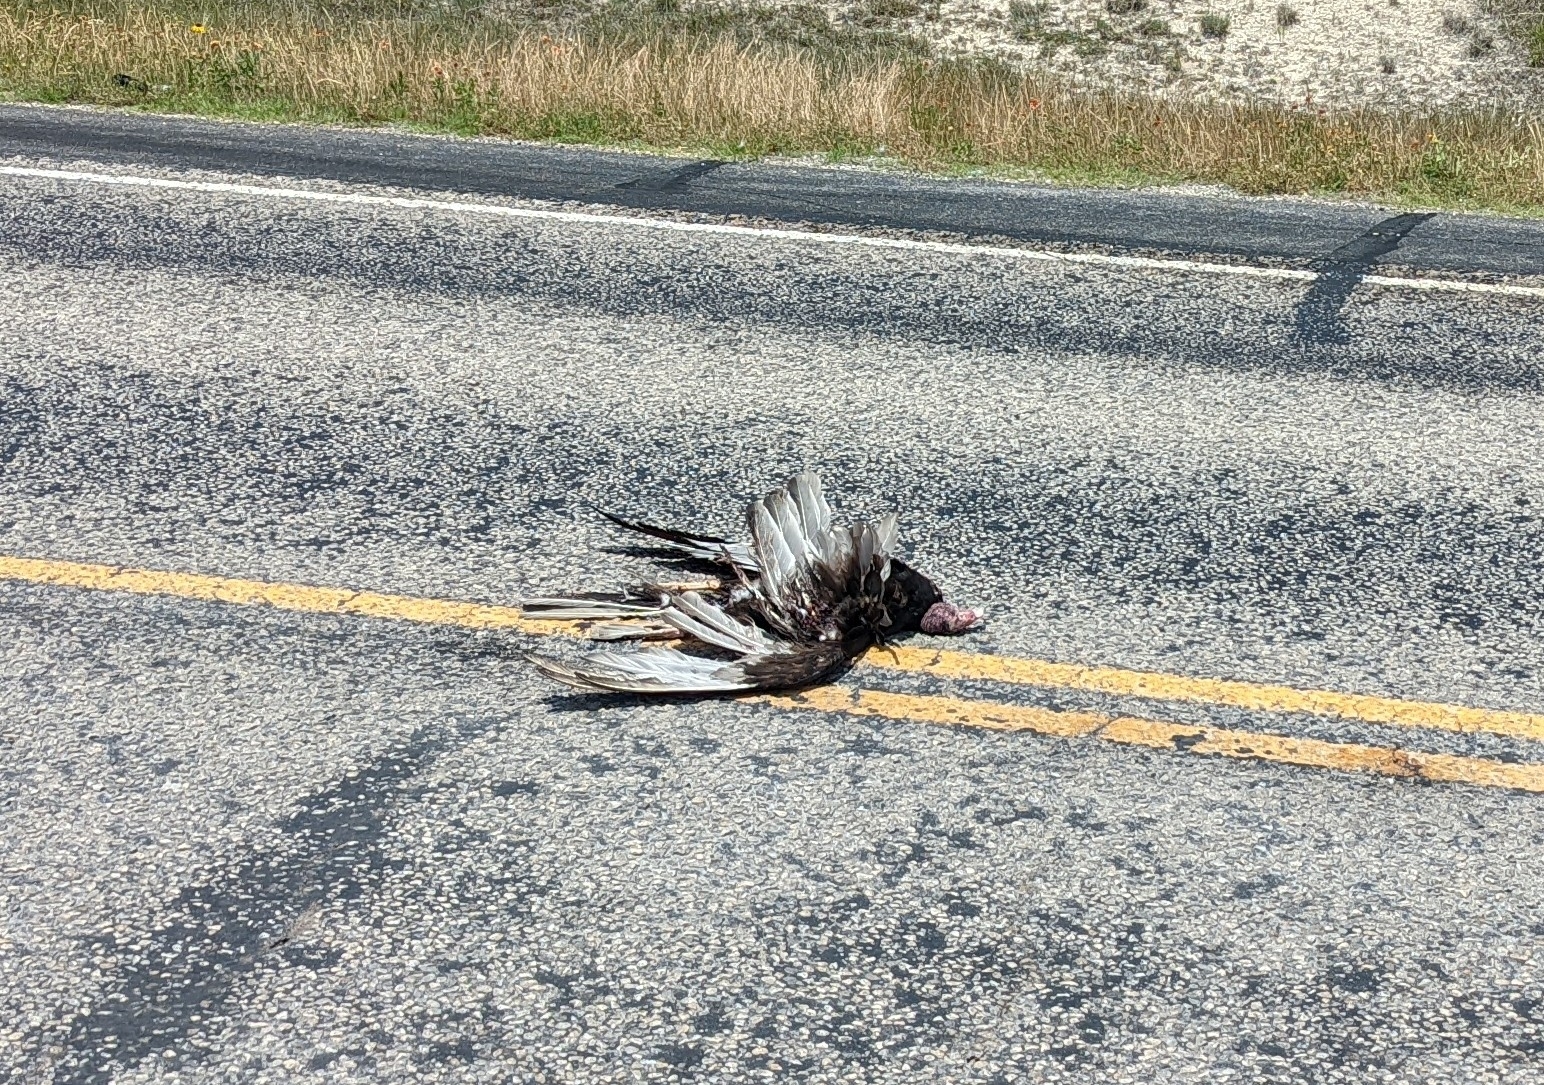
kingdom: Animalia
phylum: Chordata
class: Aves
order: Accipitriformes
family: Cathartidae
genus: Cathartes
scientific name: Cathartes aura
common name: Turkey vulture
